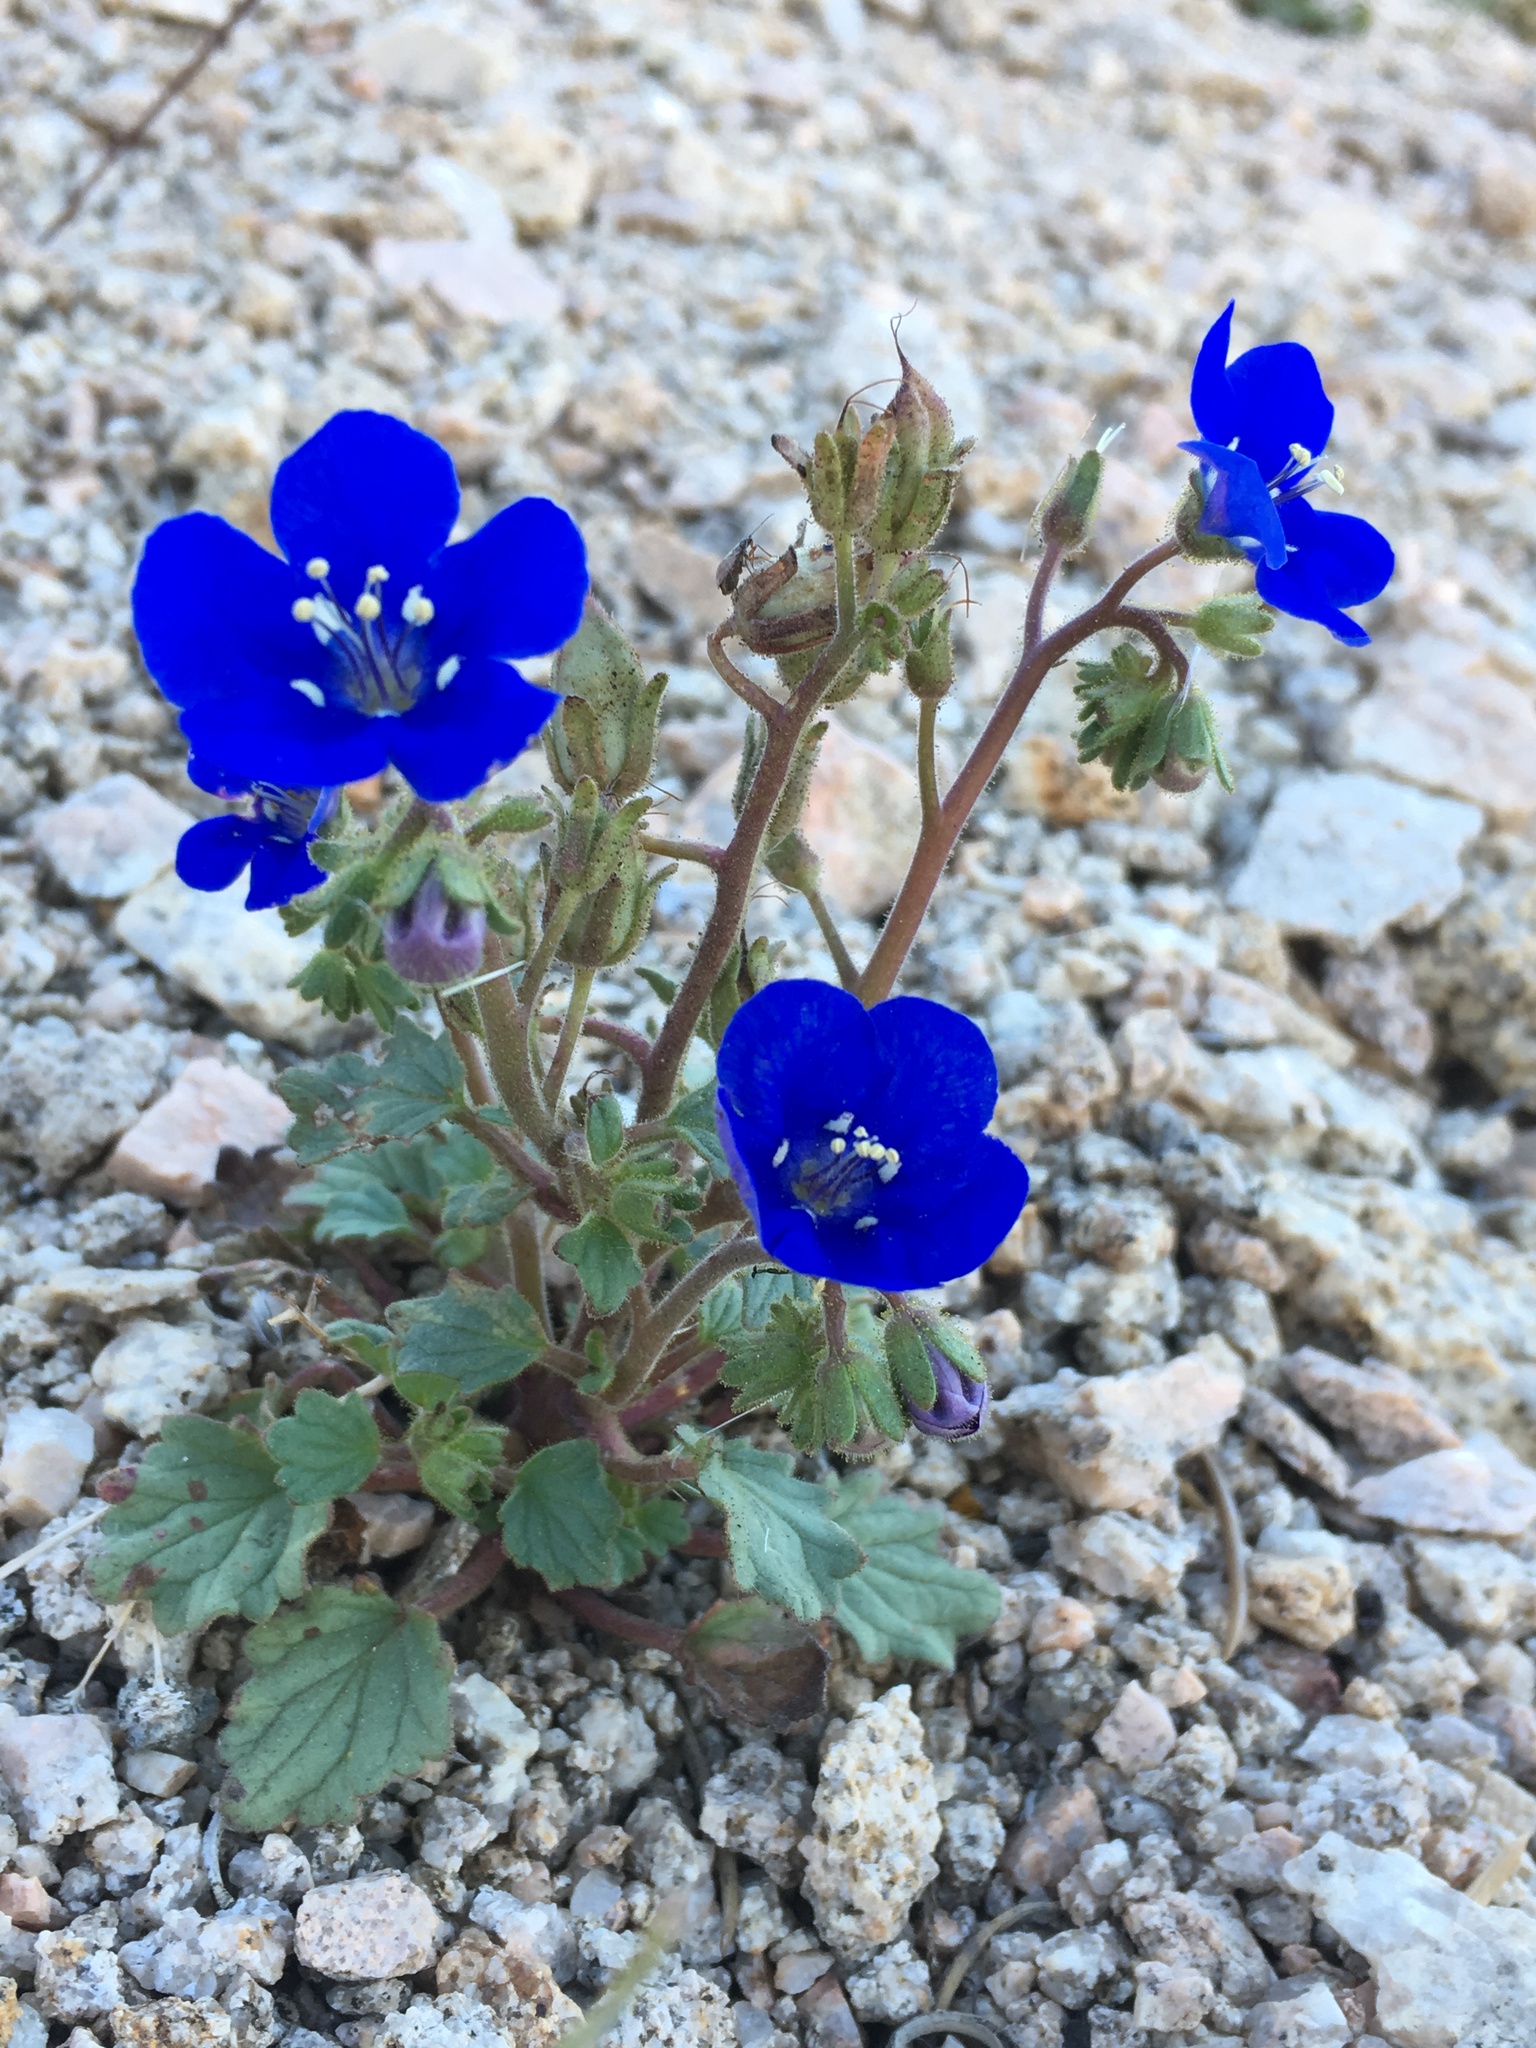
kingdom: Plantae
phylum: Tracheophyta
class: Magnoliopsida
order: Boraginales
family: Hydrophyllaceae
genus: Phacelia
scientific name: Phacelia nashiana
